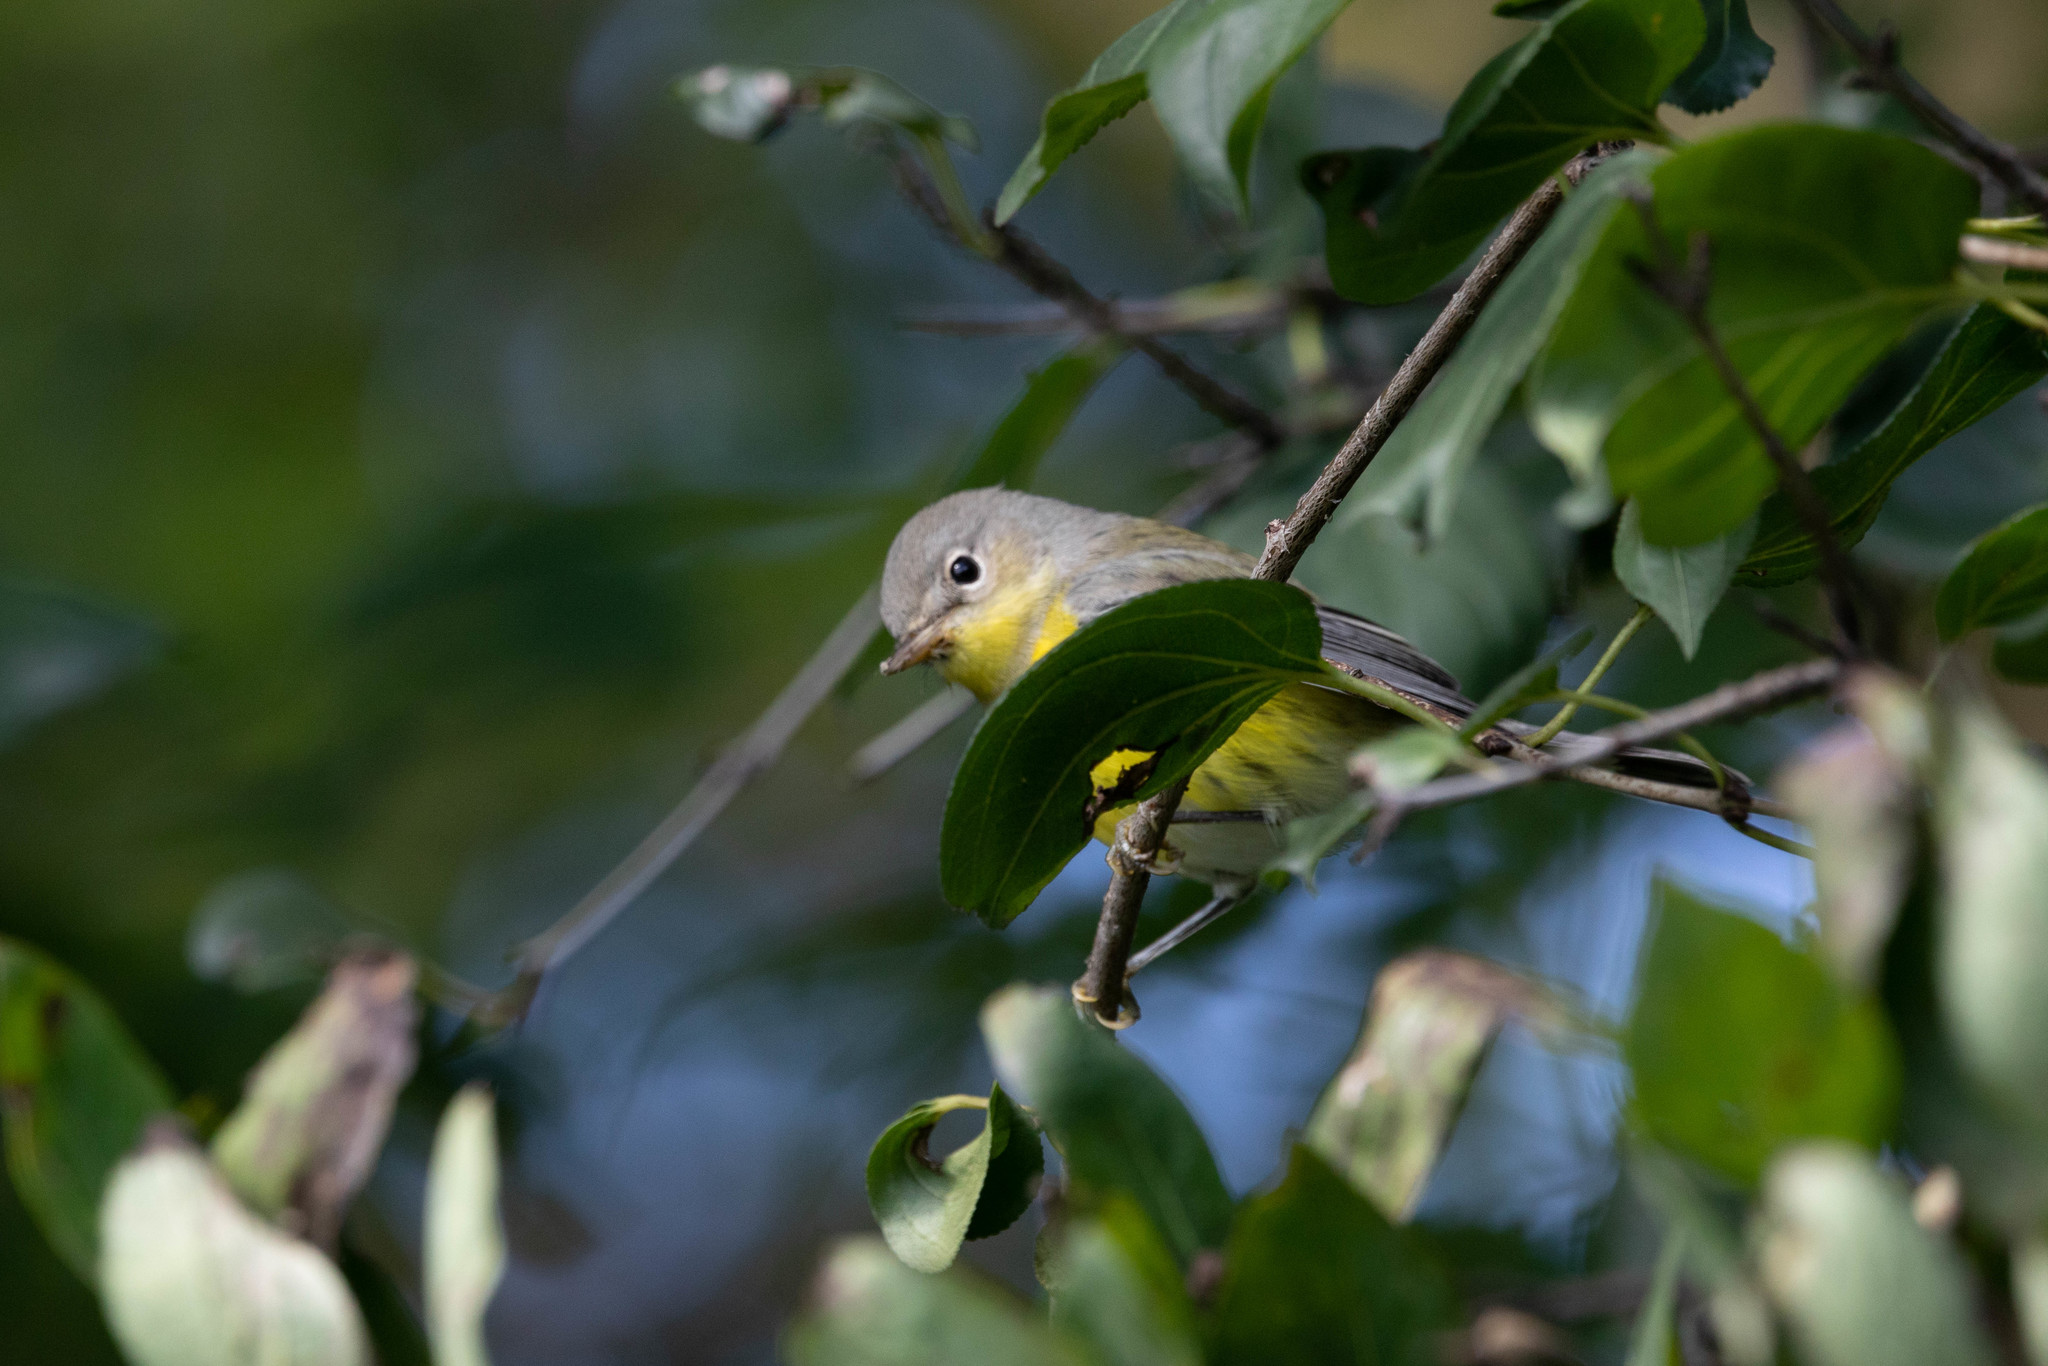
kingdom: Animalia
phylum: Chordata
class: Aves
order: Passeriformes
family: Parulidae
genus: Setophaga
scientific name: Setophaga magnolia
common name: Magnolia warbler
